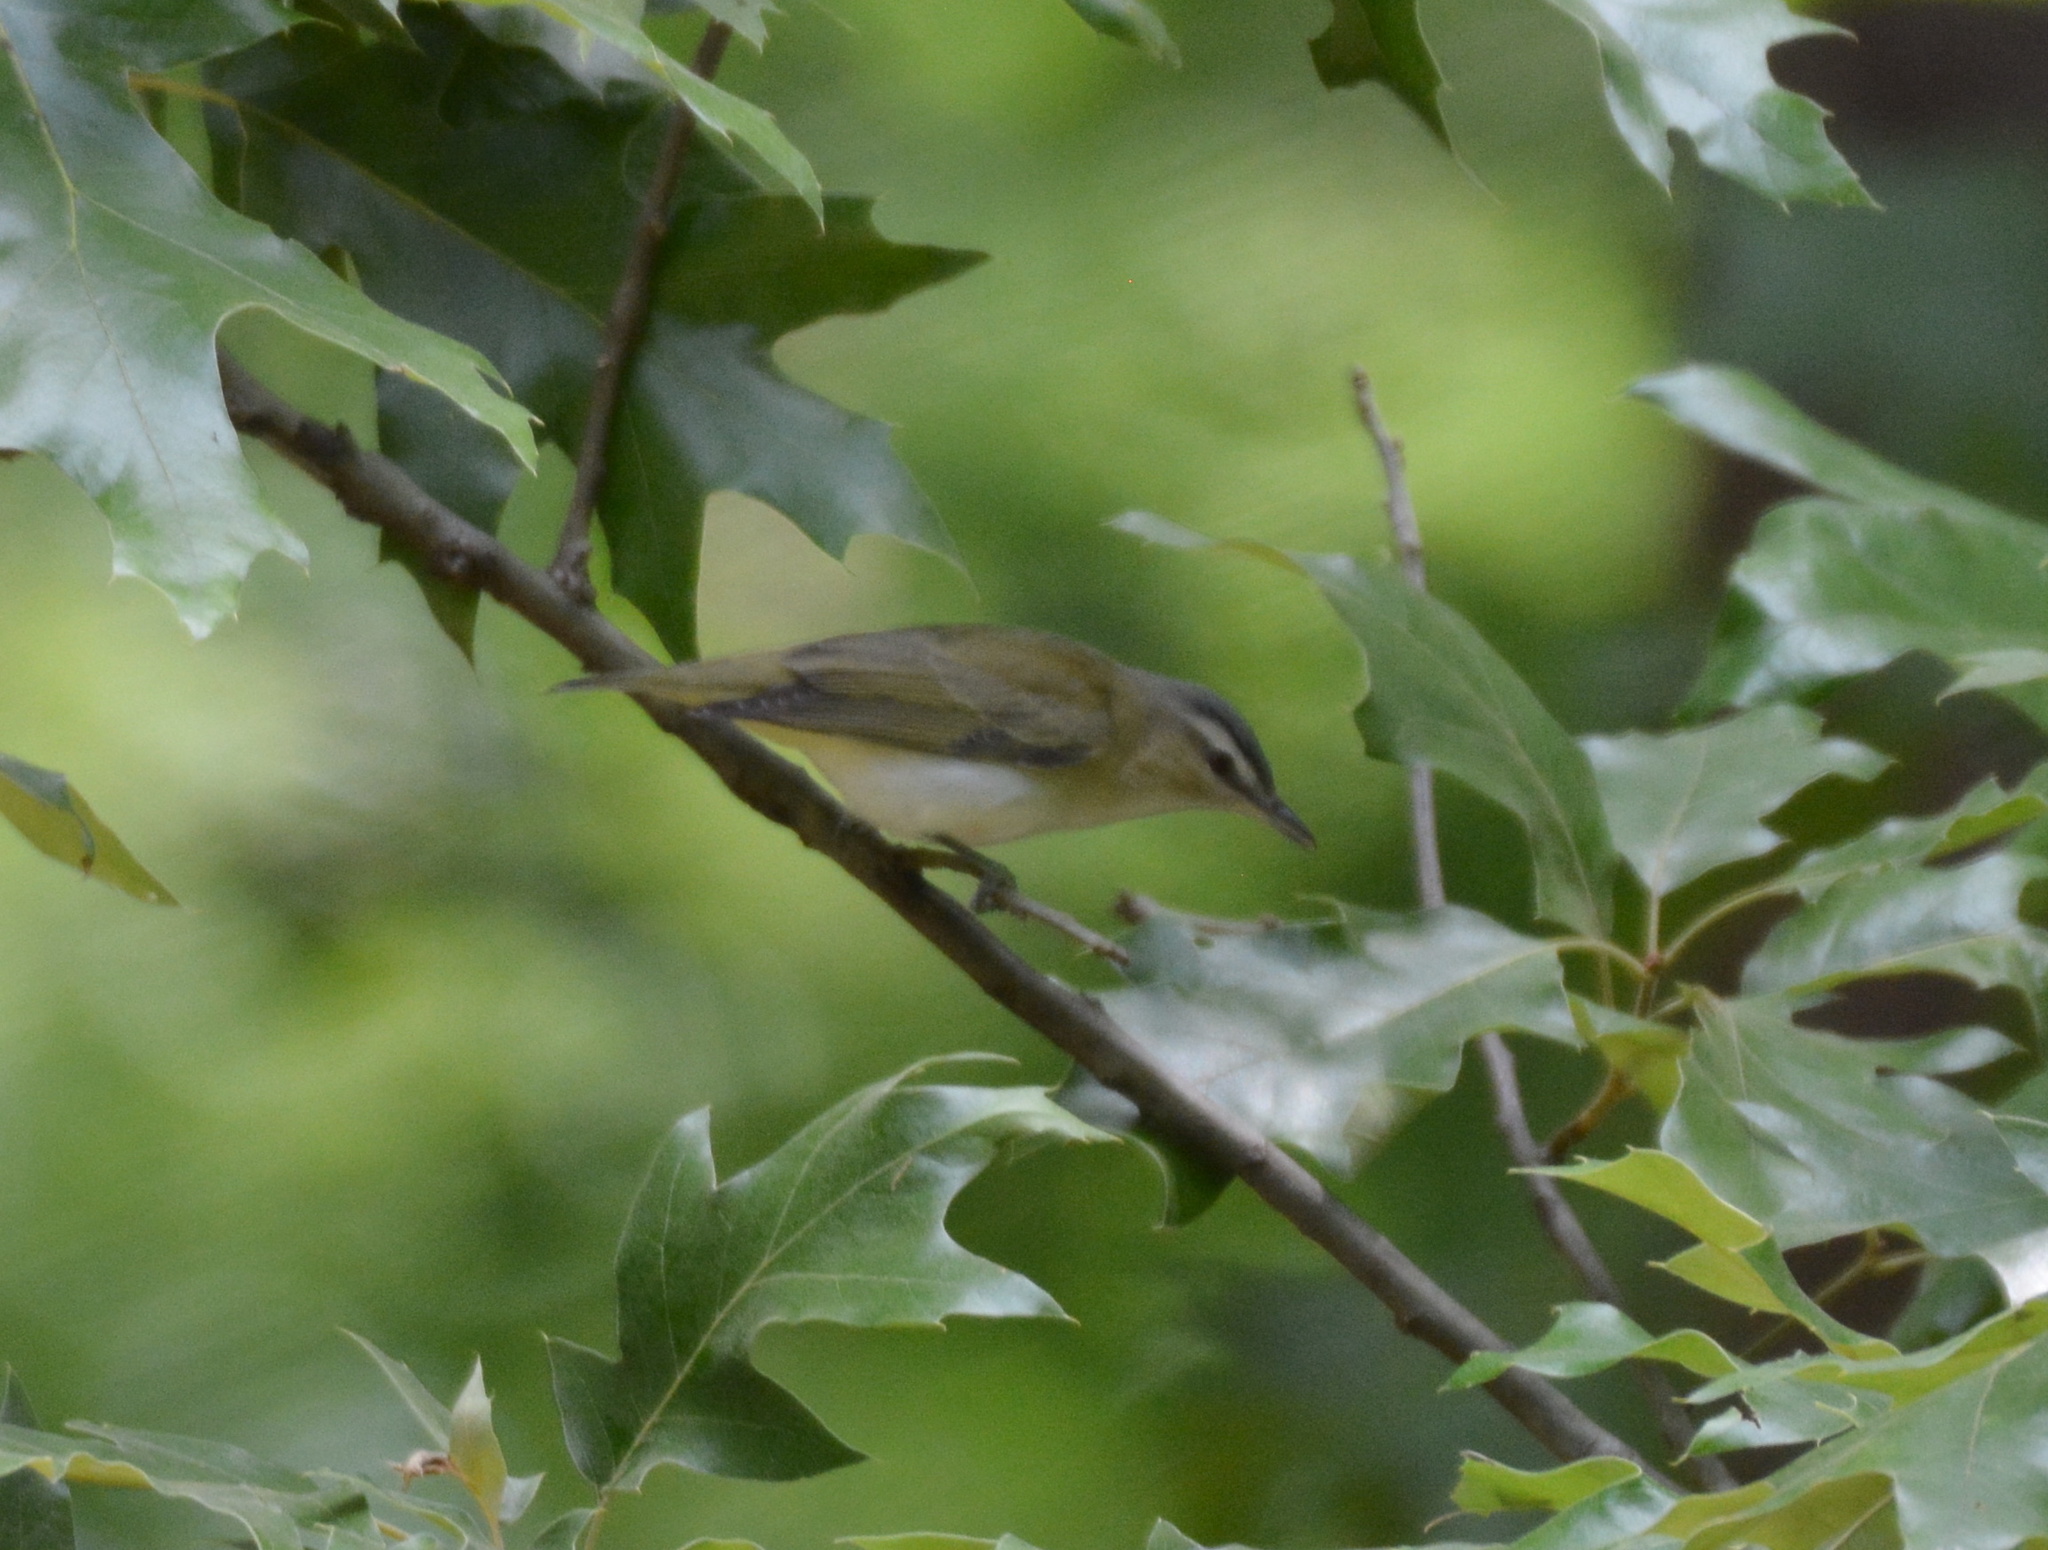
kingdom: Animalia
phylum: Chordata
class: Aves
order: Passeriformes
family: Vireonidae
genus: Vireo
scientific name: Vireo olivaceus
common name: Red-eyed vireo
